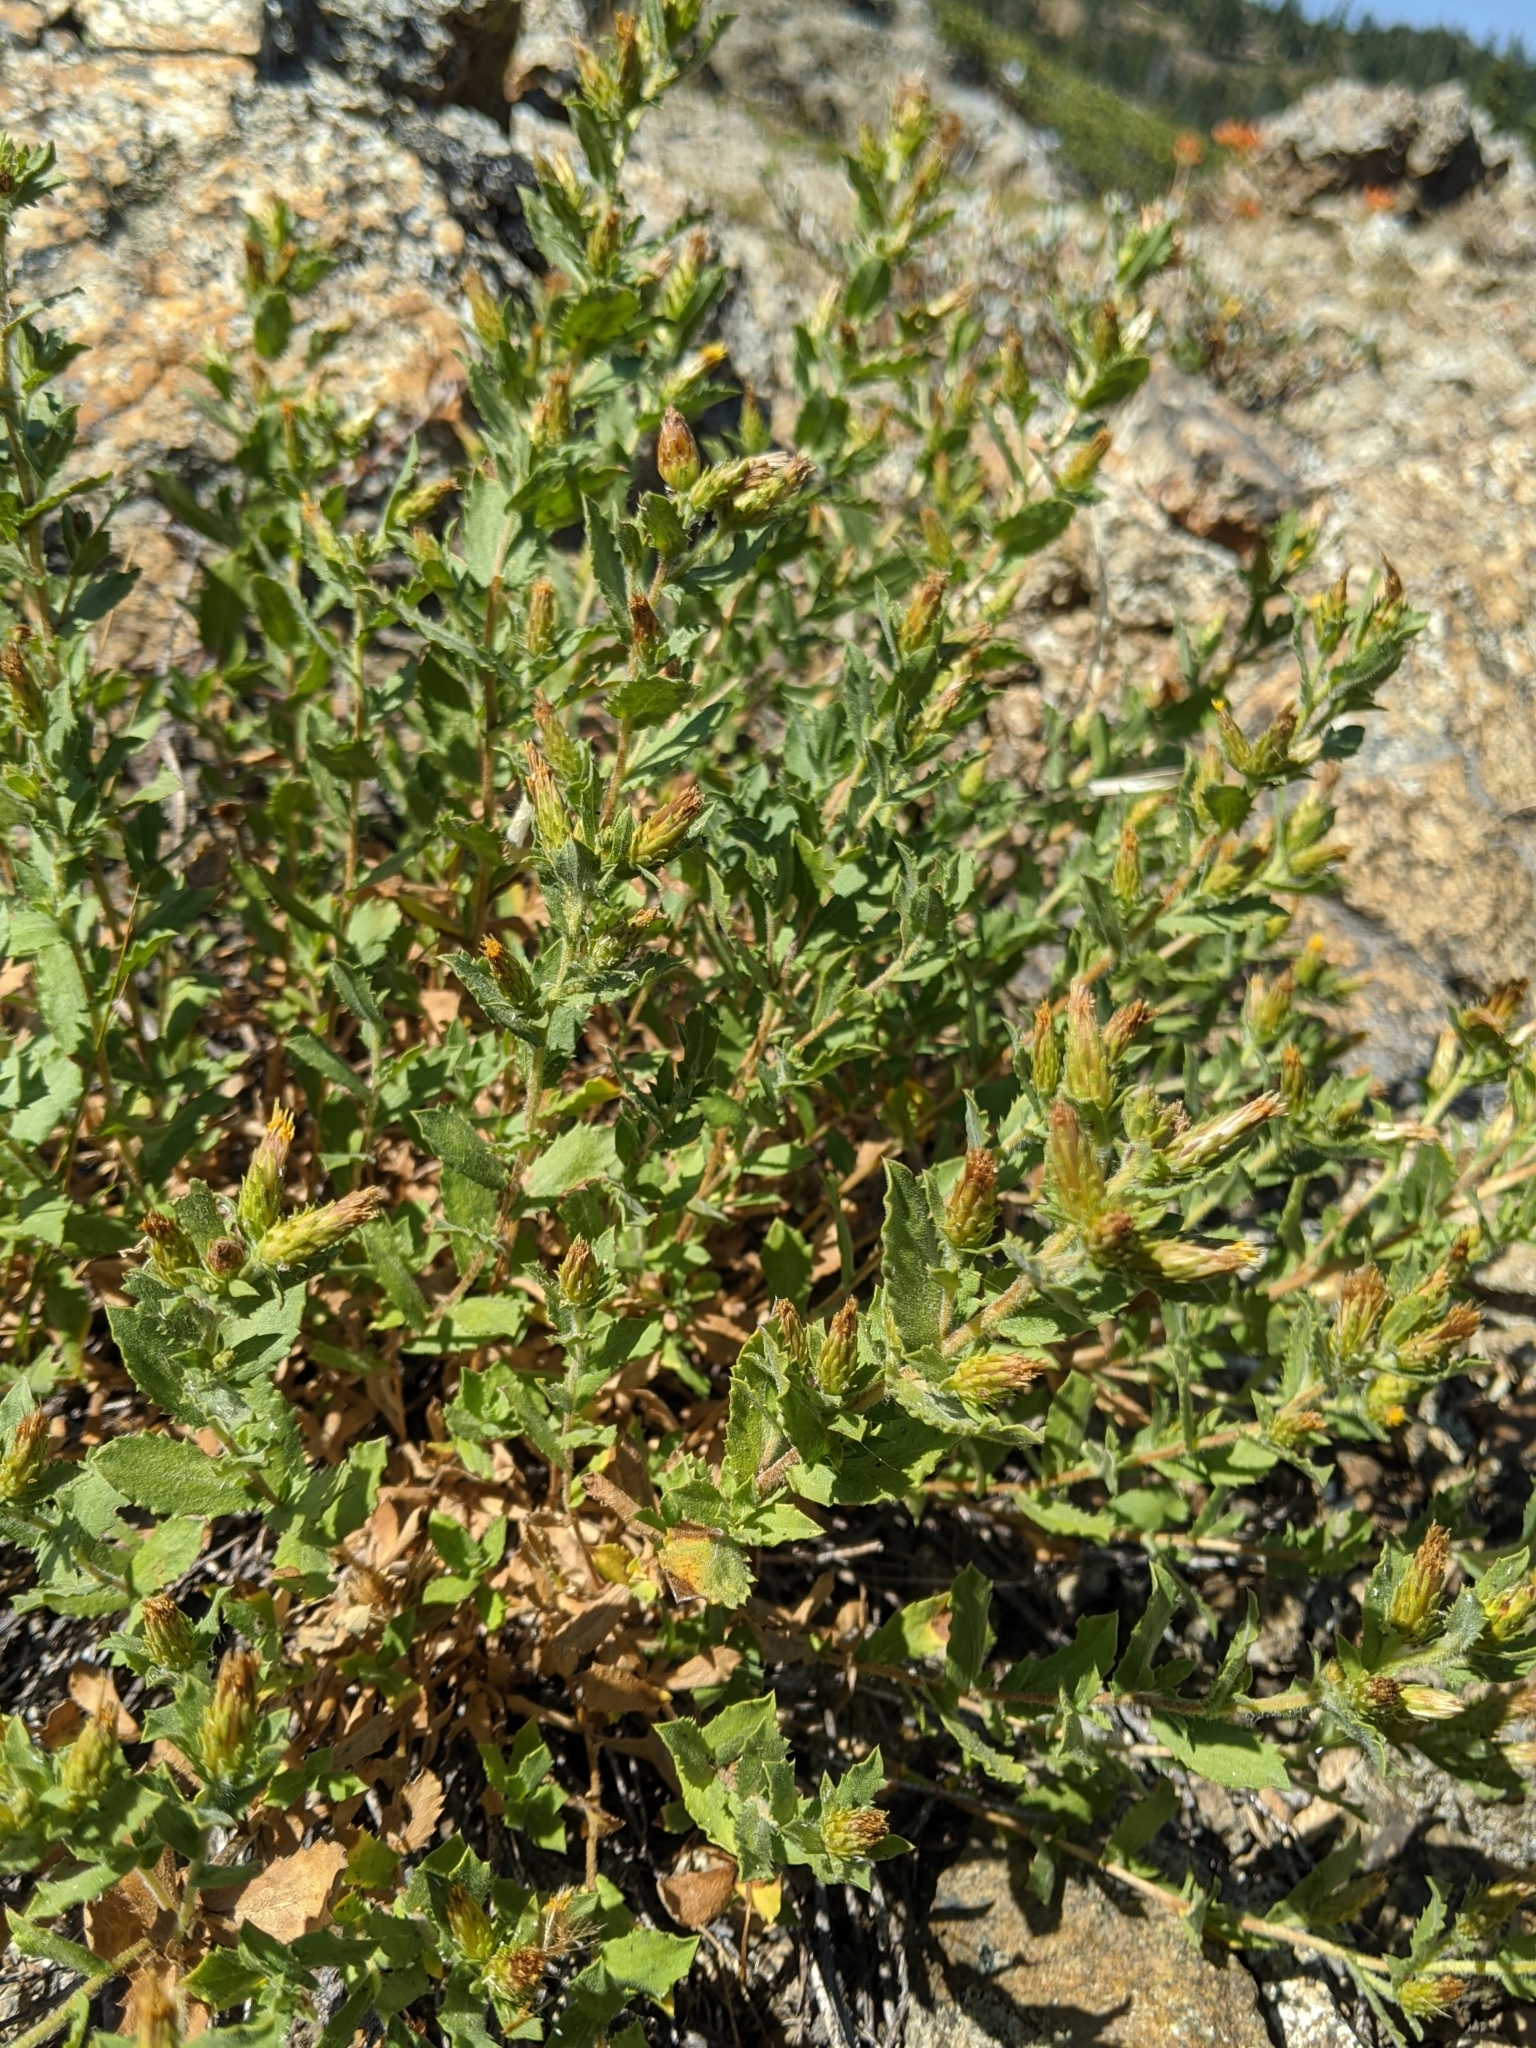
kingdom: Plantae
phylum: Tracheophyta
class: Magnoliopsida
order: Asterales
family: Asteraceae
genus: Adeia
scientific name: Adeia discoidea
